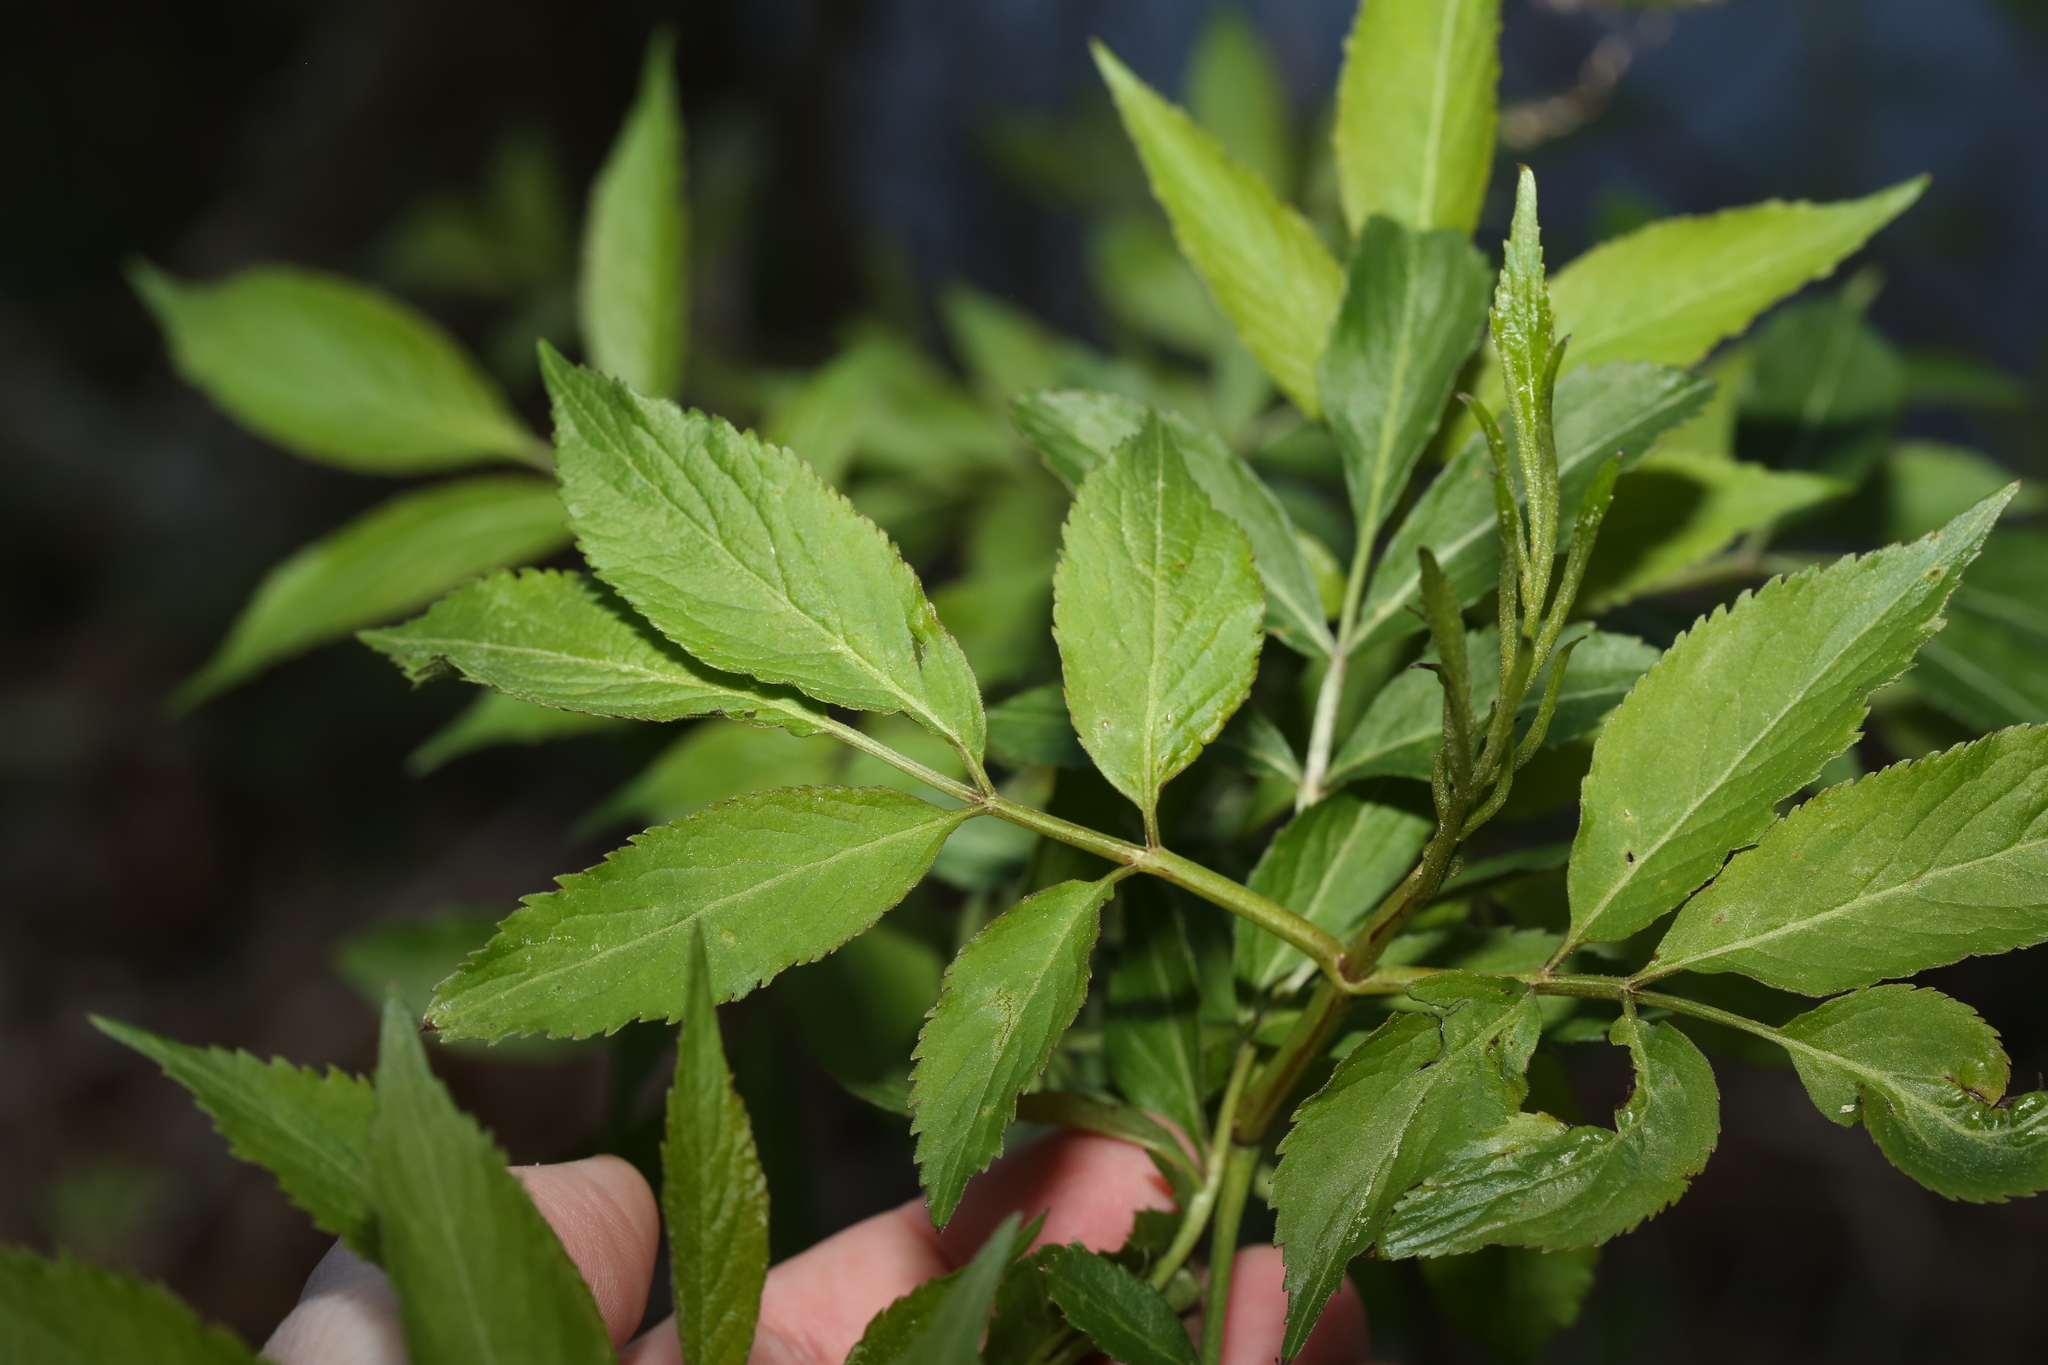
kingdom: Plantae
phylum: Tracheophyta
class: Magnoliopsida
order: Dipsacales
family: Viburnaceae
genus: Sambucus
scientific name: Sambucus canadensis
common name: American elder
